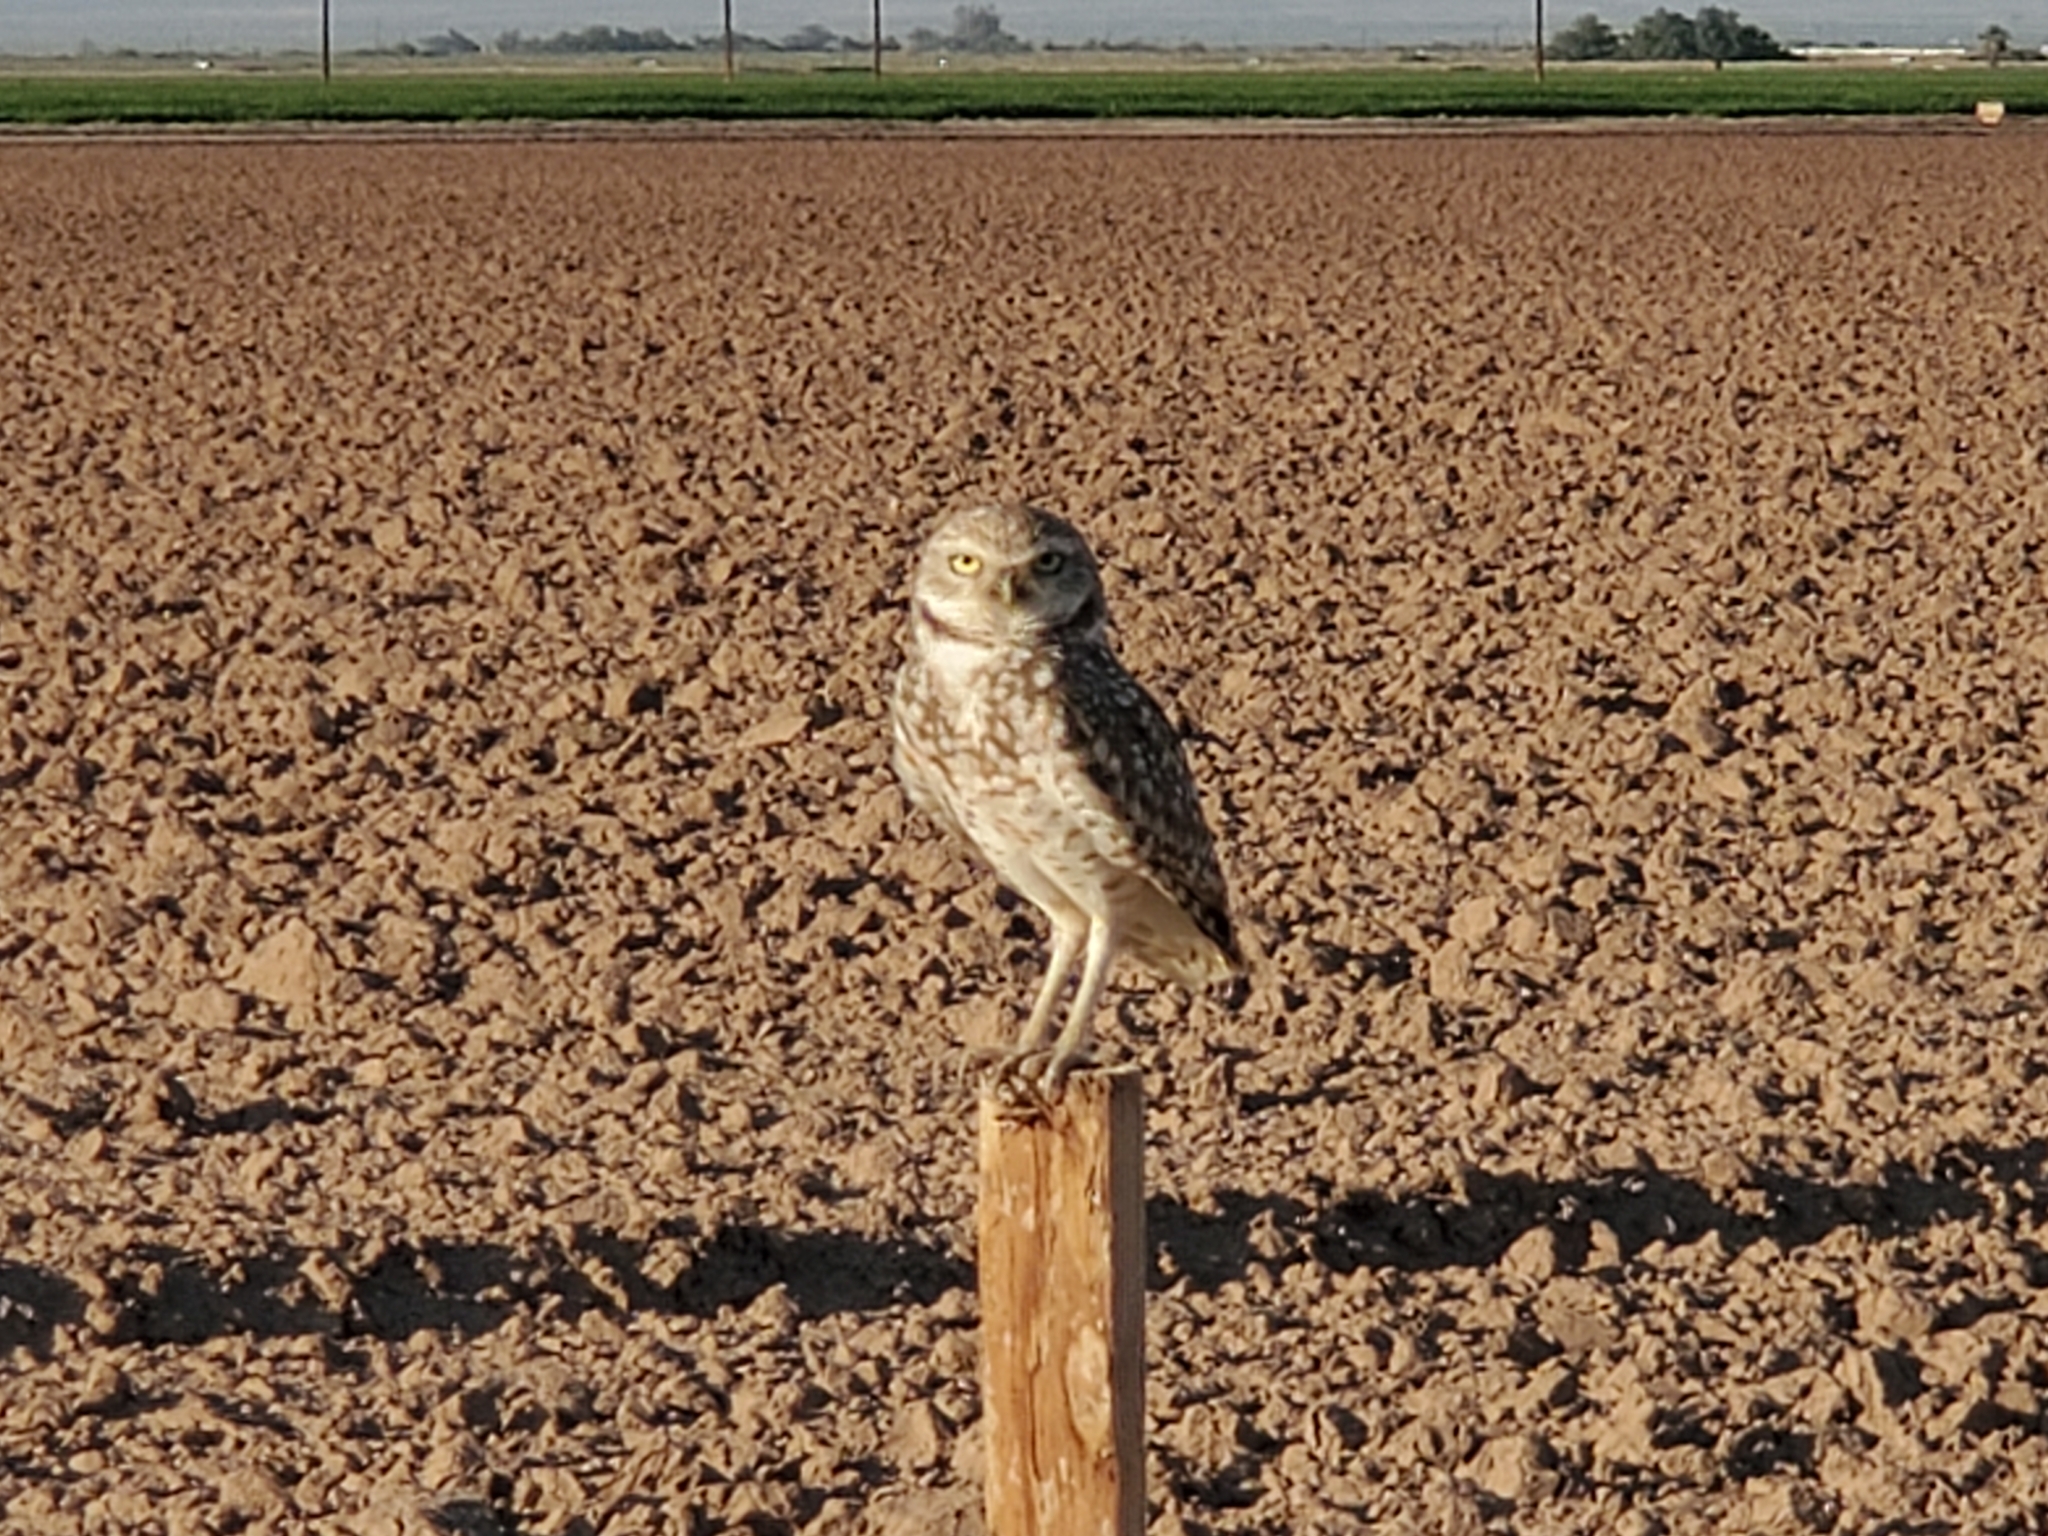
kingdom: Animalia
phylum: Chordata
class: Aves
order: Strigiformes
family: Strigidae
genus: Athene
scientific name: Athene cunicularia
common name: Burrowing owl
